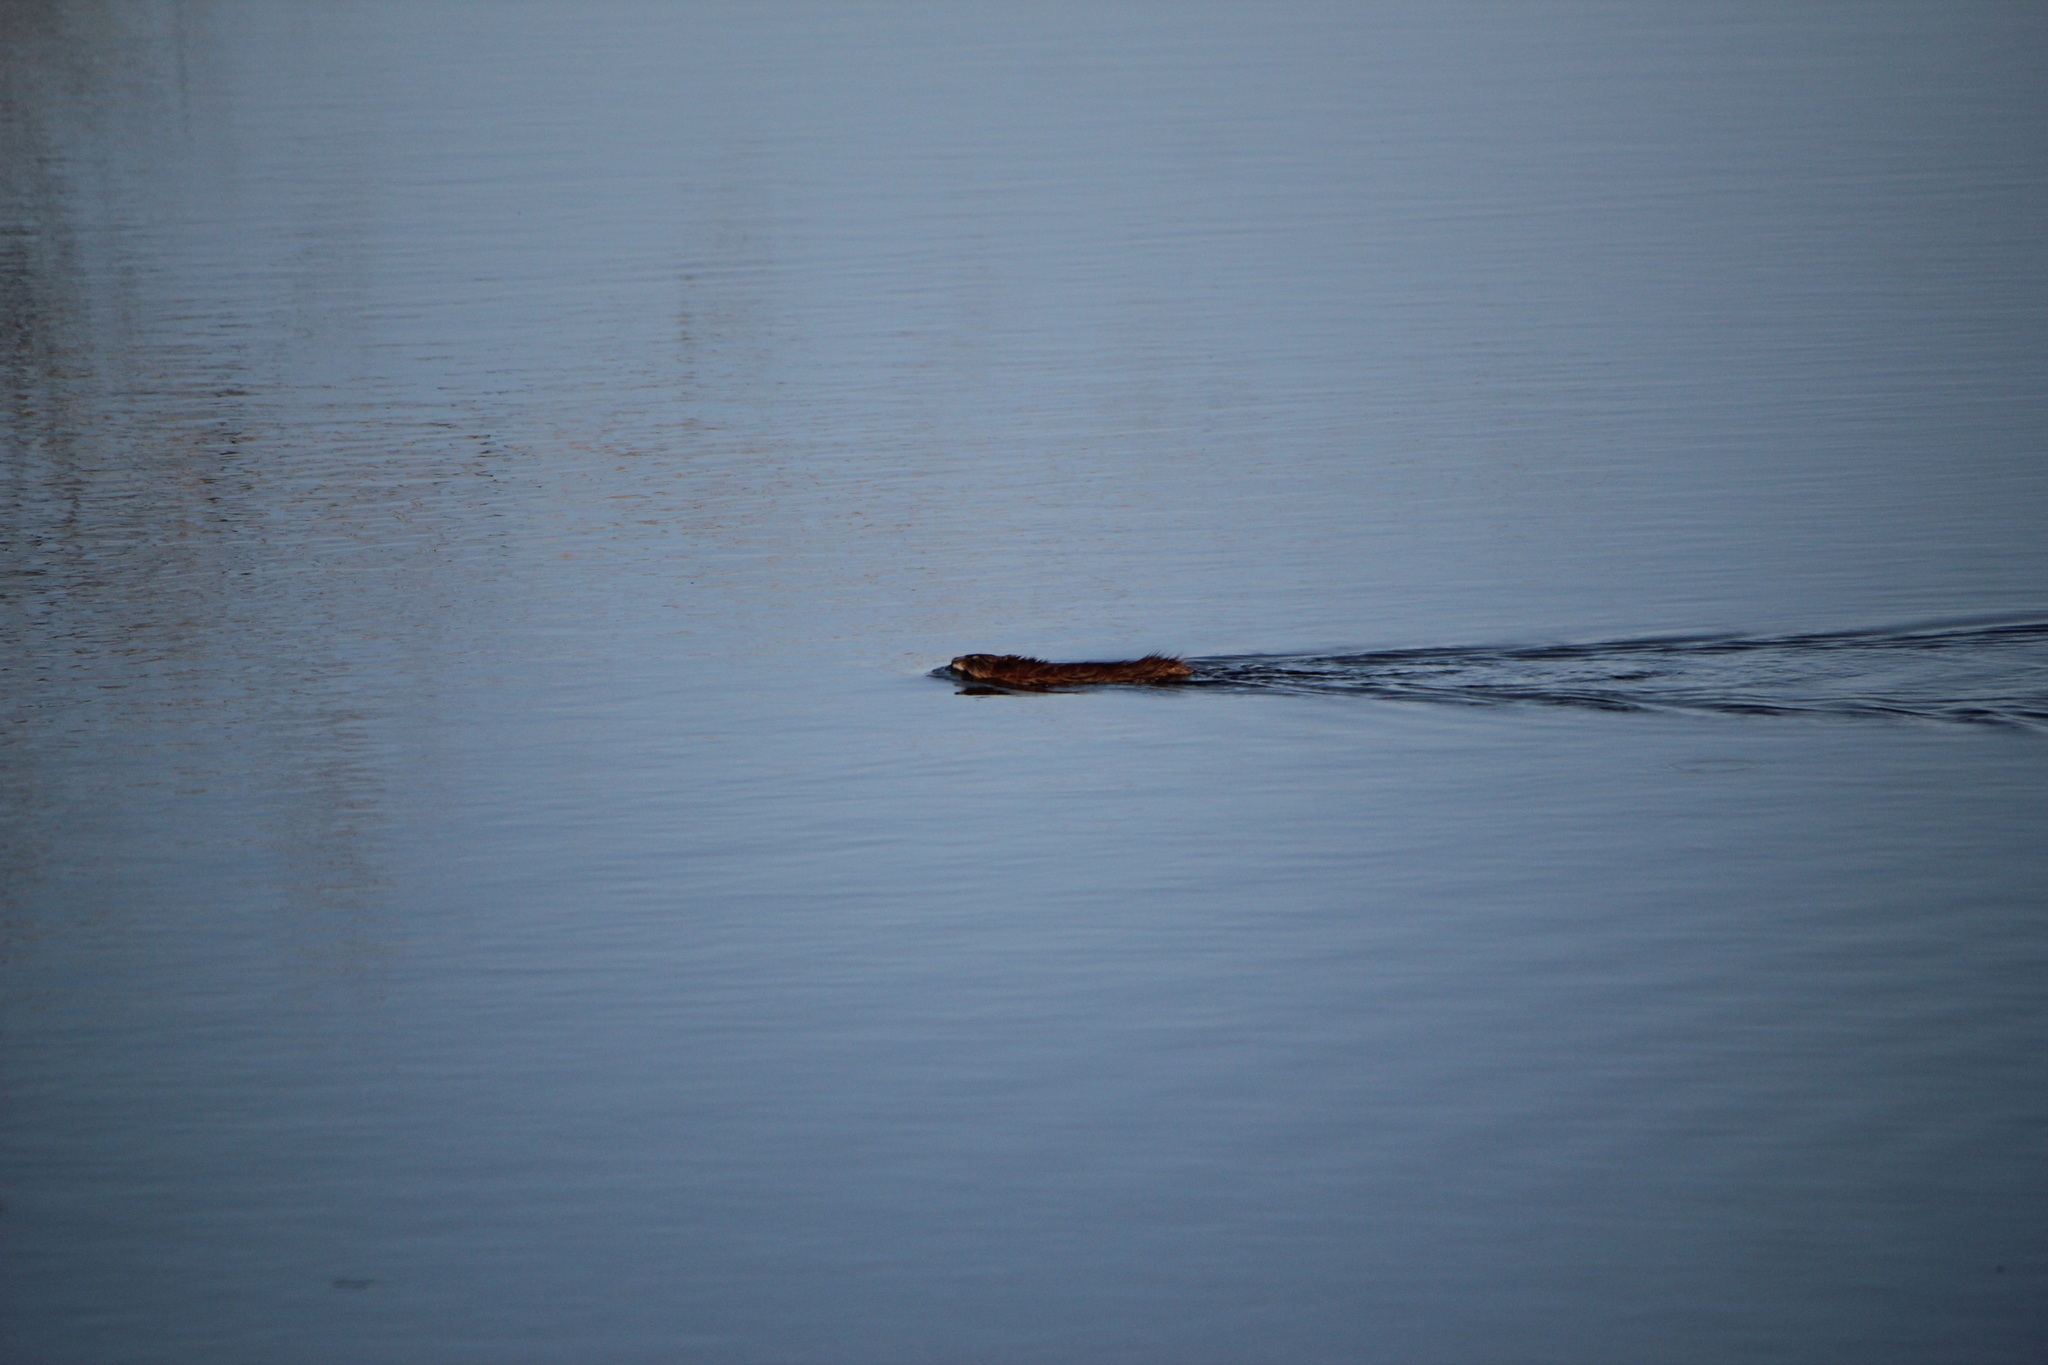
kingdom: Animalia
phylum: Chordata
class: Mammalia
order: Rodentia
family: Cricetidae
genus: Ondatra
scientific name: Ondatra zibethicus
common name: Muskrat
